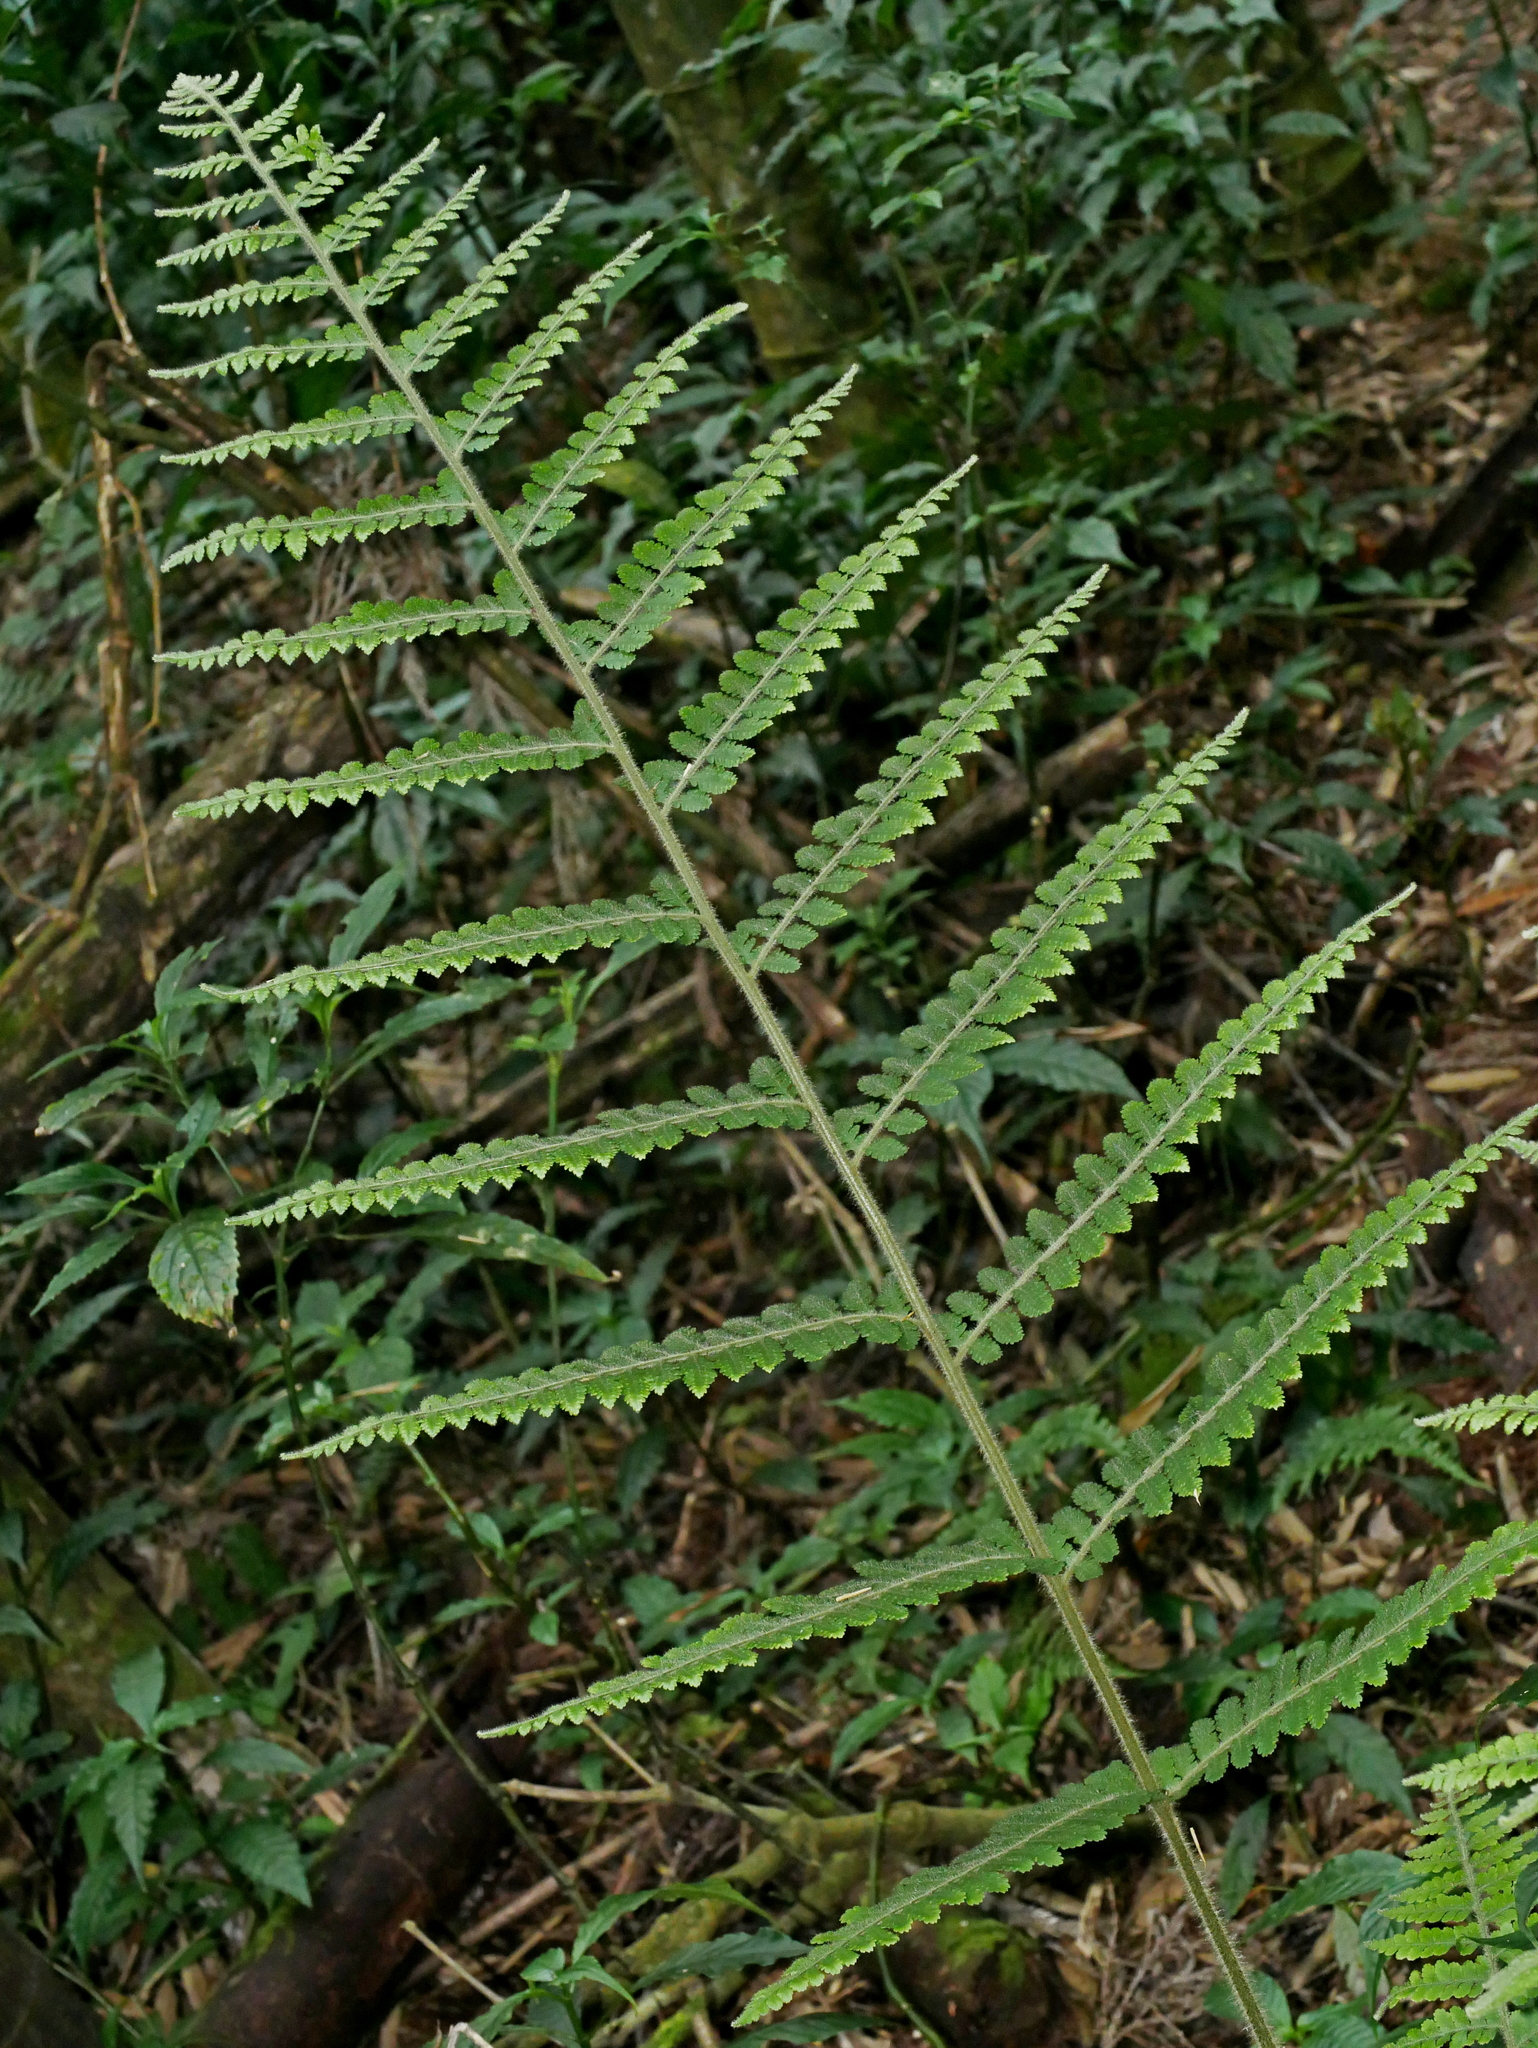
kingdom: Plantae
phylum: Tracheophyta
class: Polypodiopsida
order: Polypodiales
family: Dennstaedtiaceae
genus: Microlepia
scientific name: Microlepia trichocarpa
